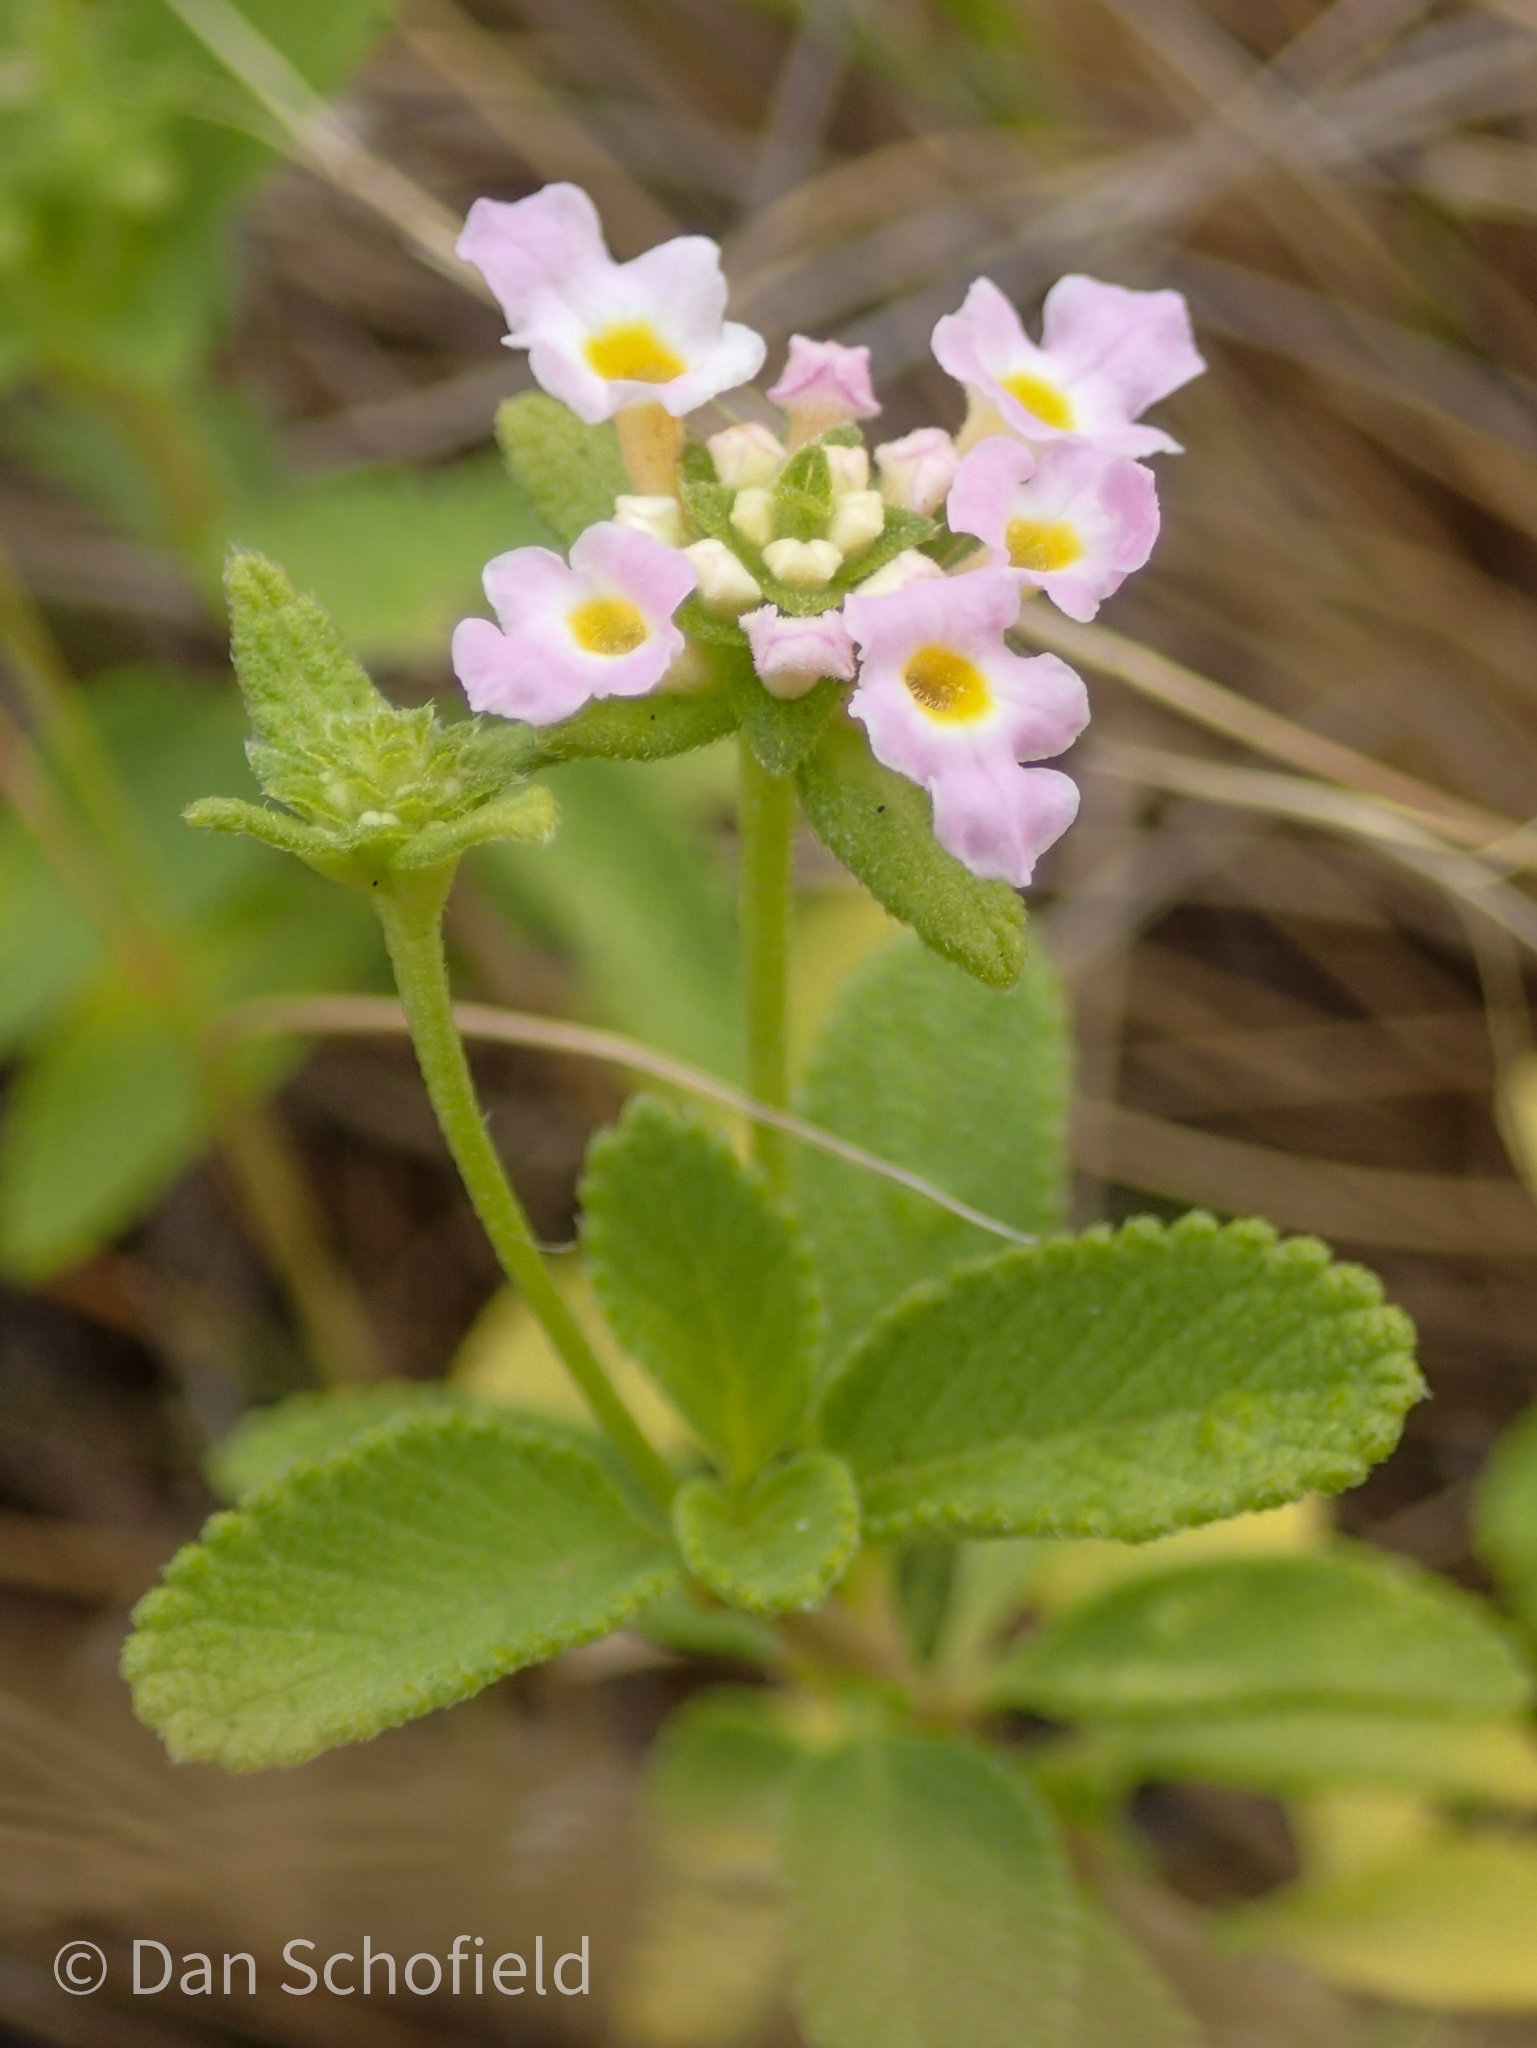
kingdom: Plantae
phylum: Tracheophyta
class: Magnoliopsida
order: Lamiales
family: Verbenaceae
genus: Lantana
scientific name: Lantana involucrata
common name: Black sage
